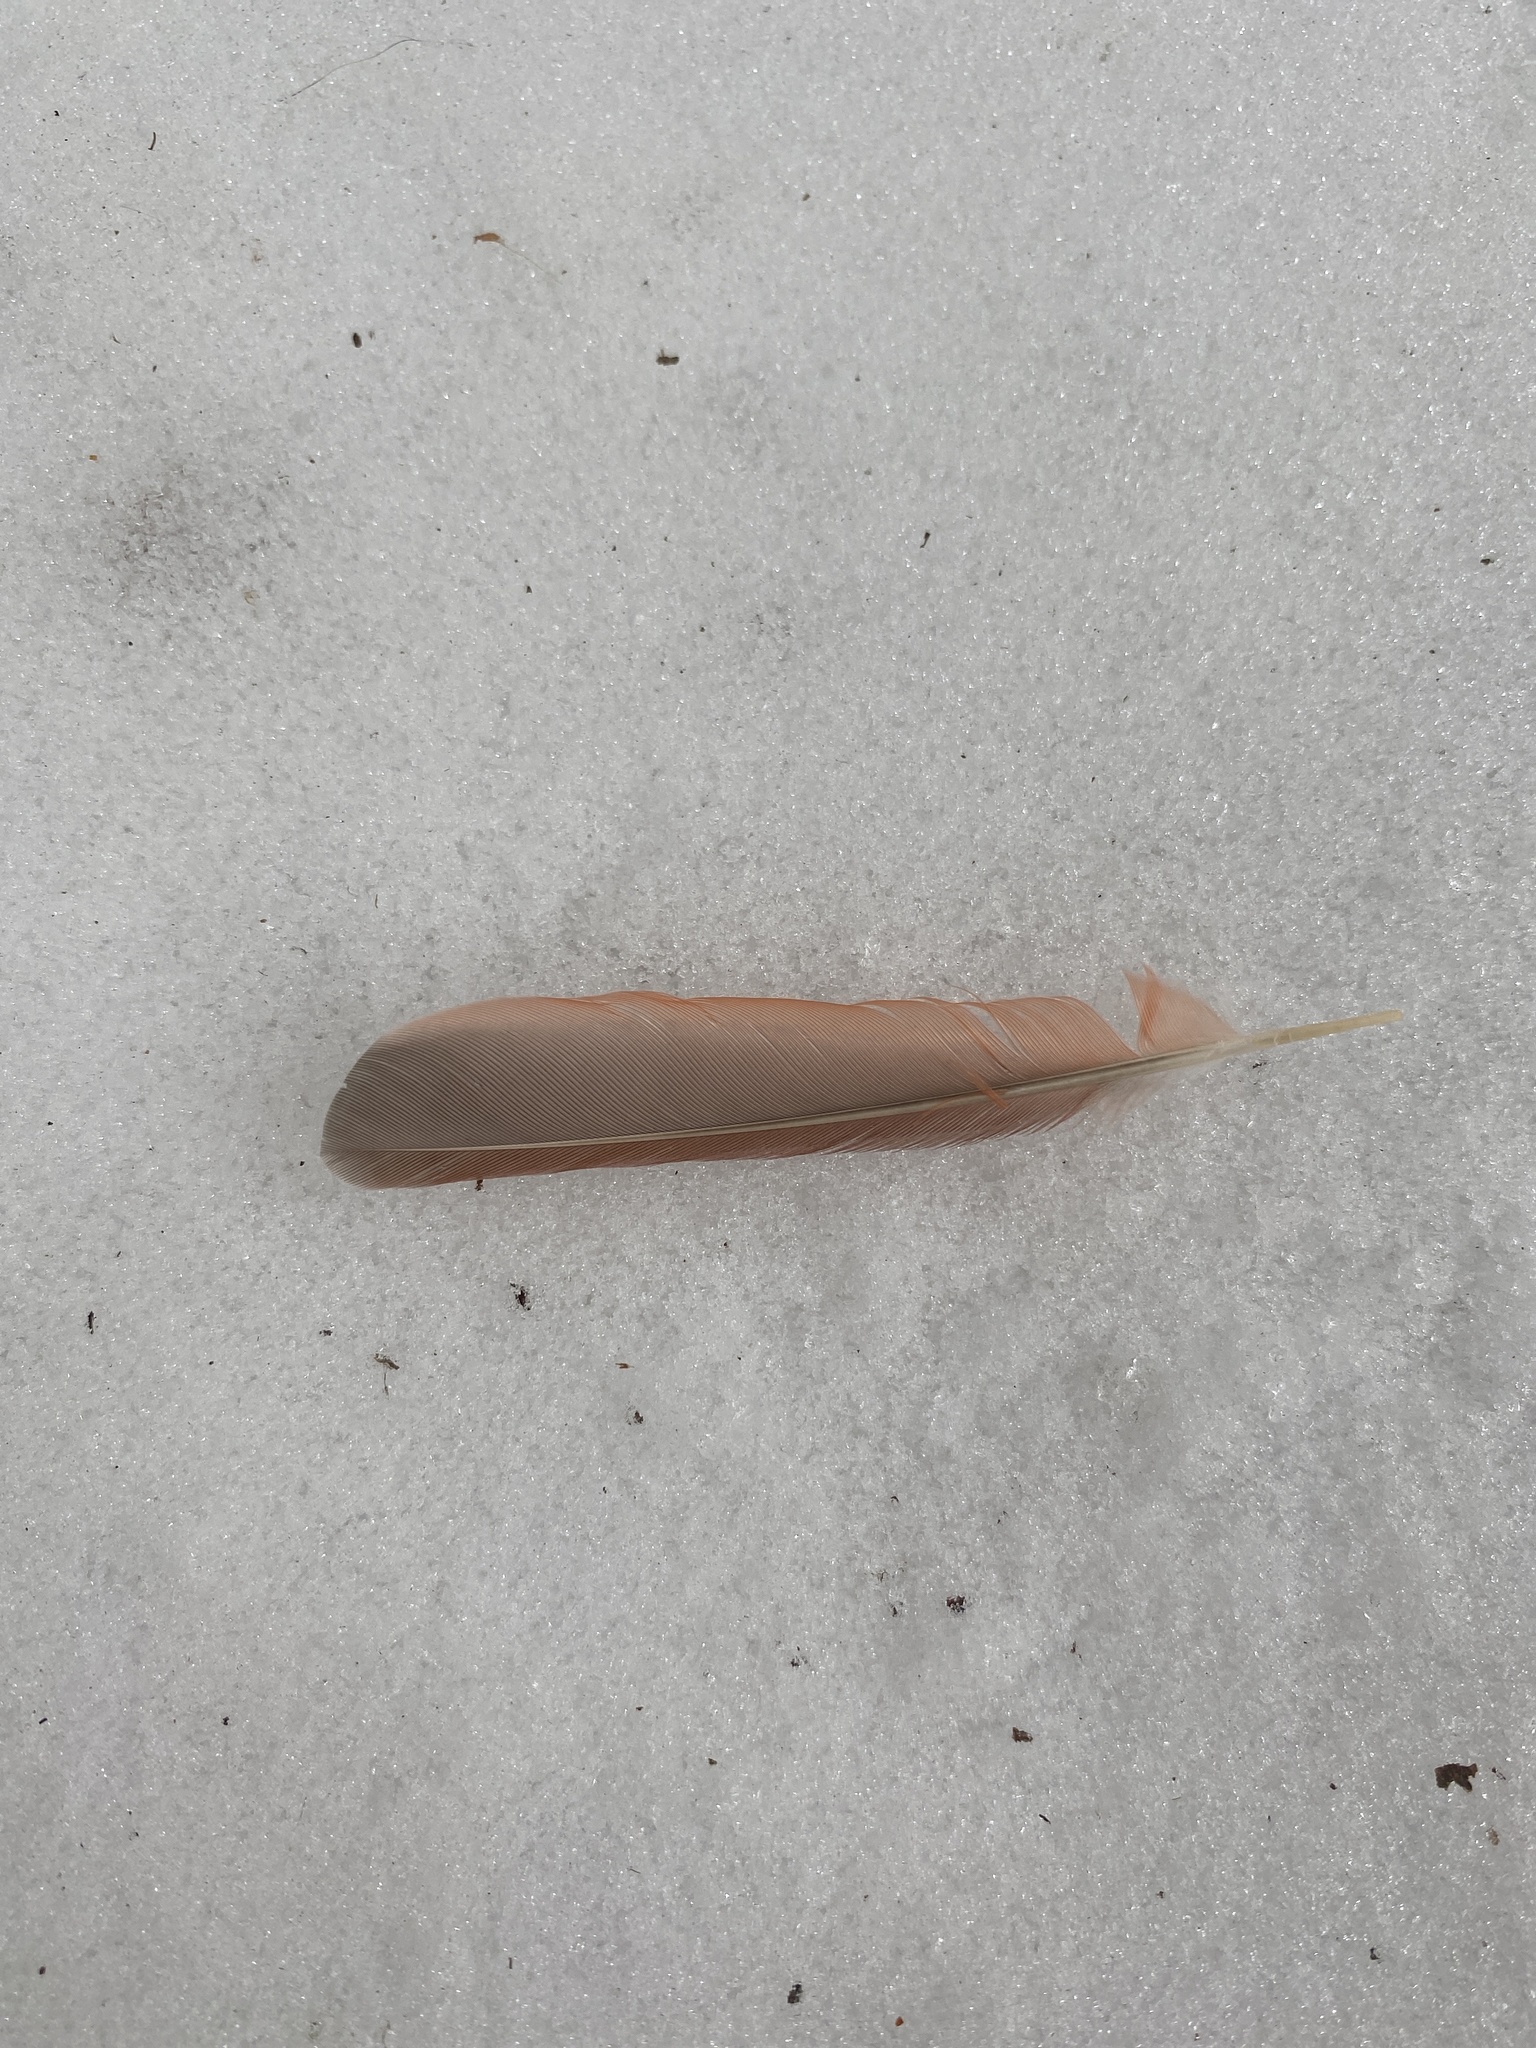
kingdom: Animalia
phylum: Chordata
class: Aves
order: Passeriformes
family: Cardinalidae
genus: Cardinalis
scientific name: Cardinalis cardinalis
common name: Northern cardinal
